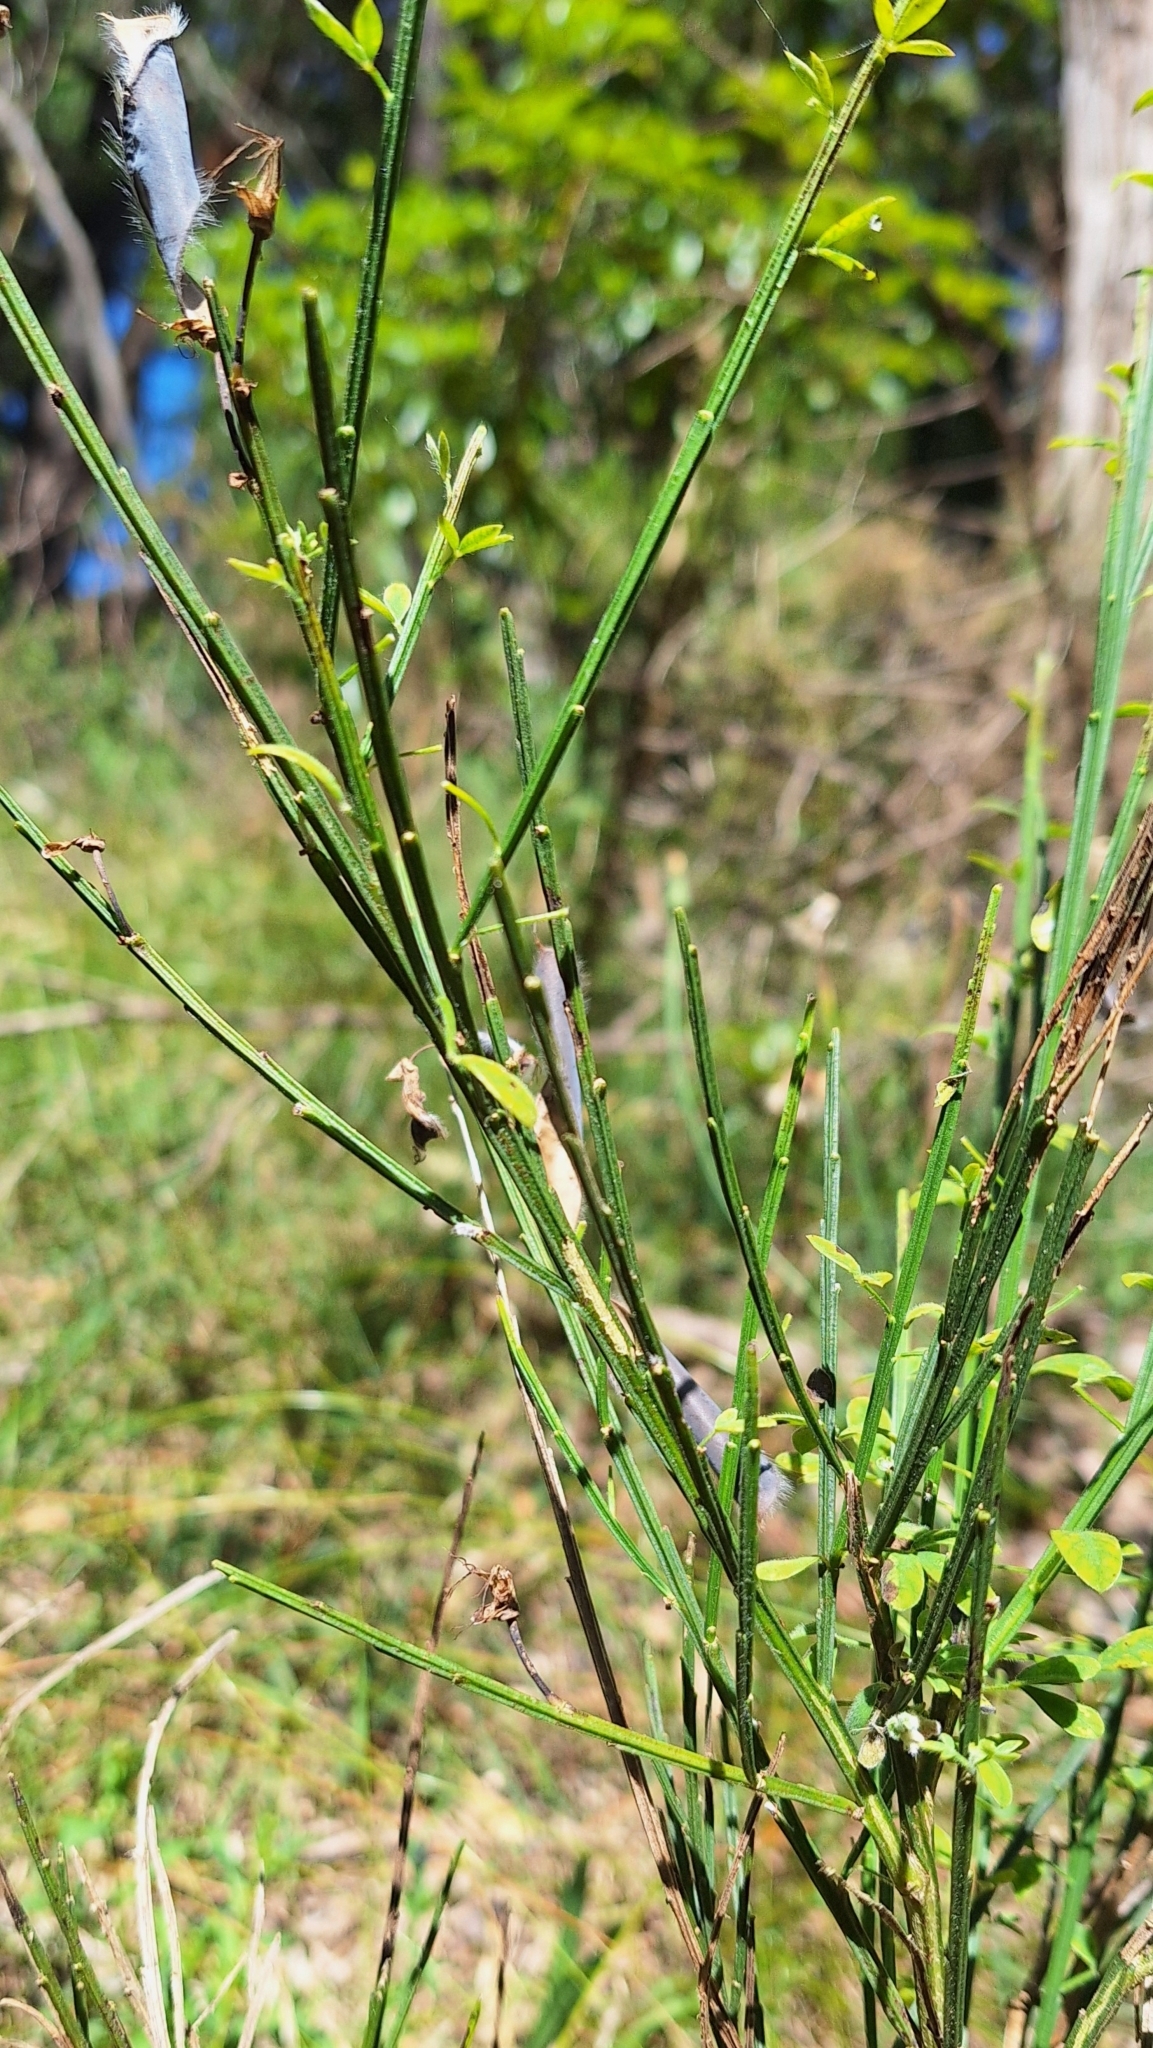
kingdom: Plantae
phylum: Tracheophyta
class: Magnoliopsida
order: Fabales
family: Fabaceae
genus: Cytisus
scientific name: Cytisus scoparius
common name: Scotch broom
